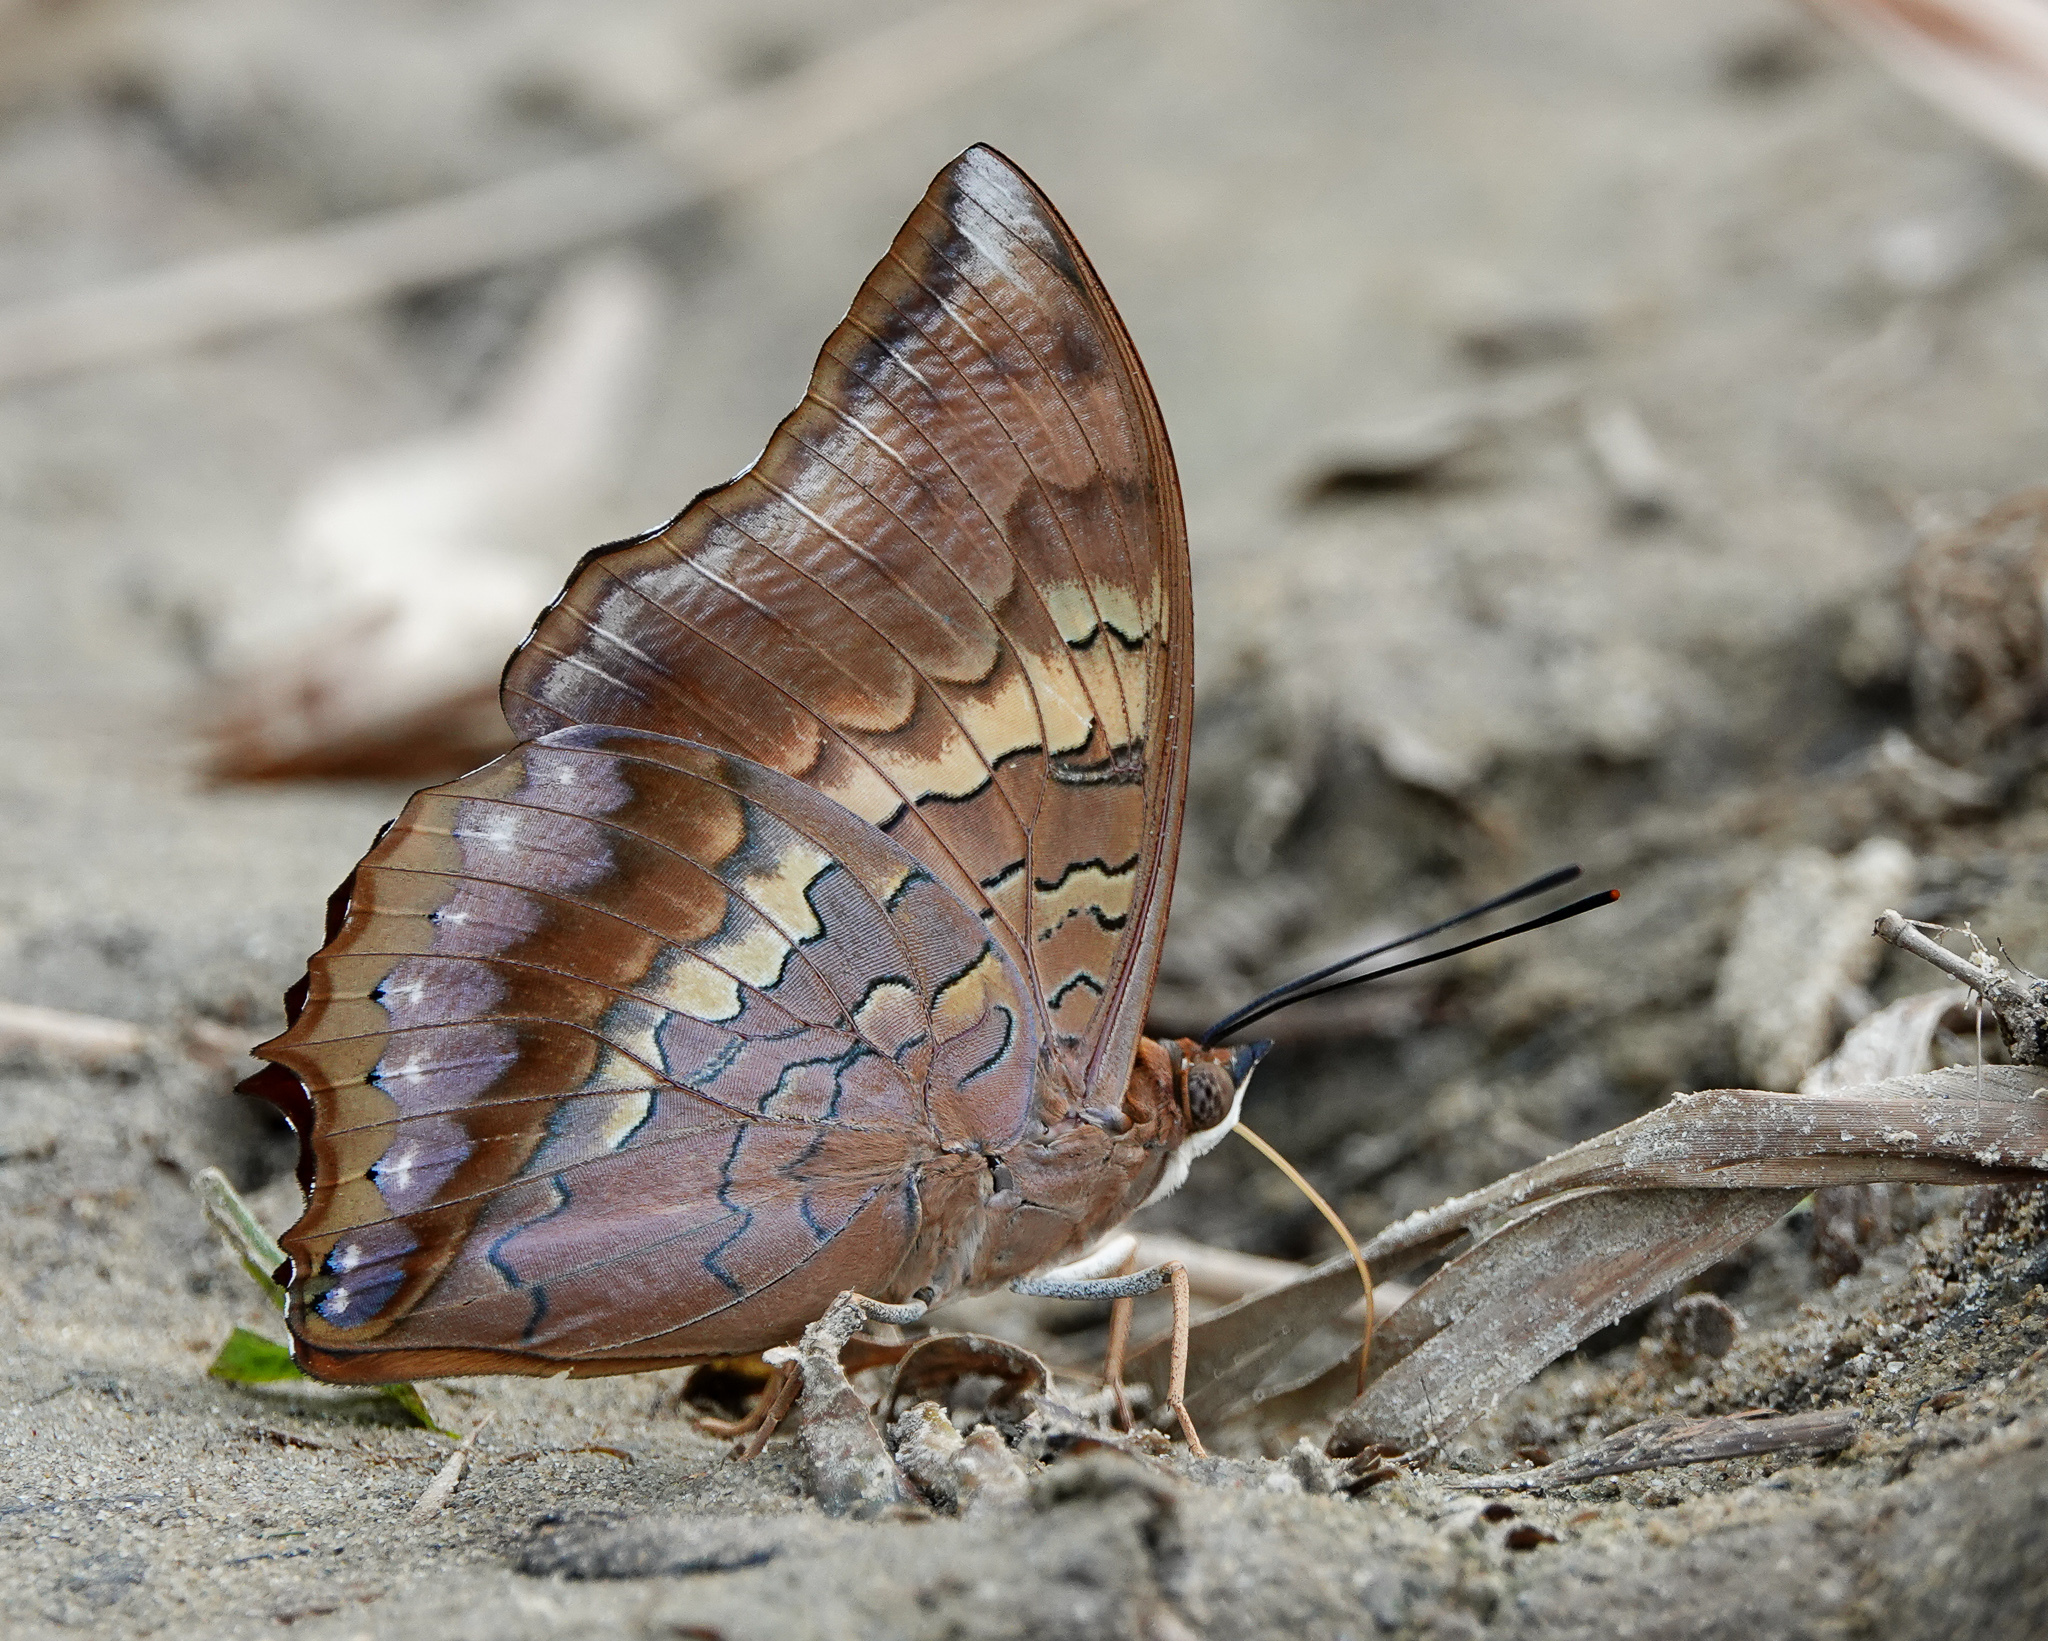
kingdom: Animalia
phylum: Arthropoda
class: Insecta
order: Lepidoptera
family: Nymphalidae
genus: Charaxes
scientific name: Charaxes bernardus
